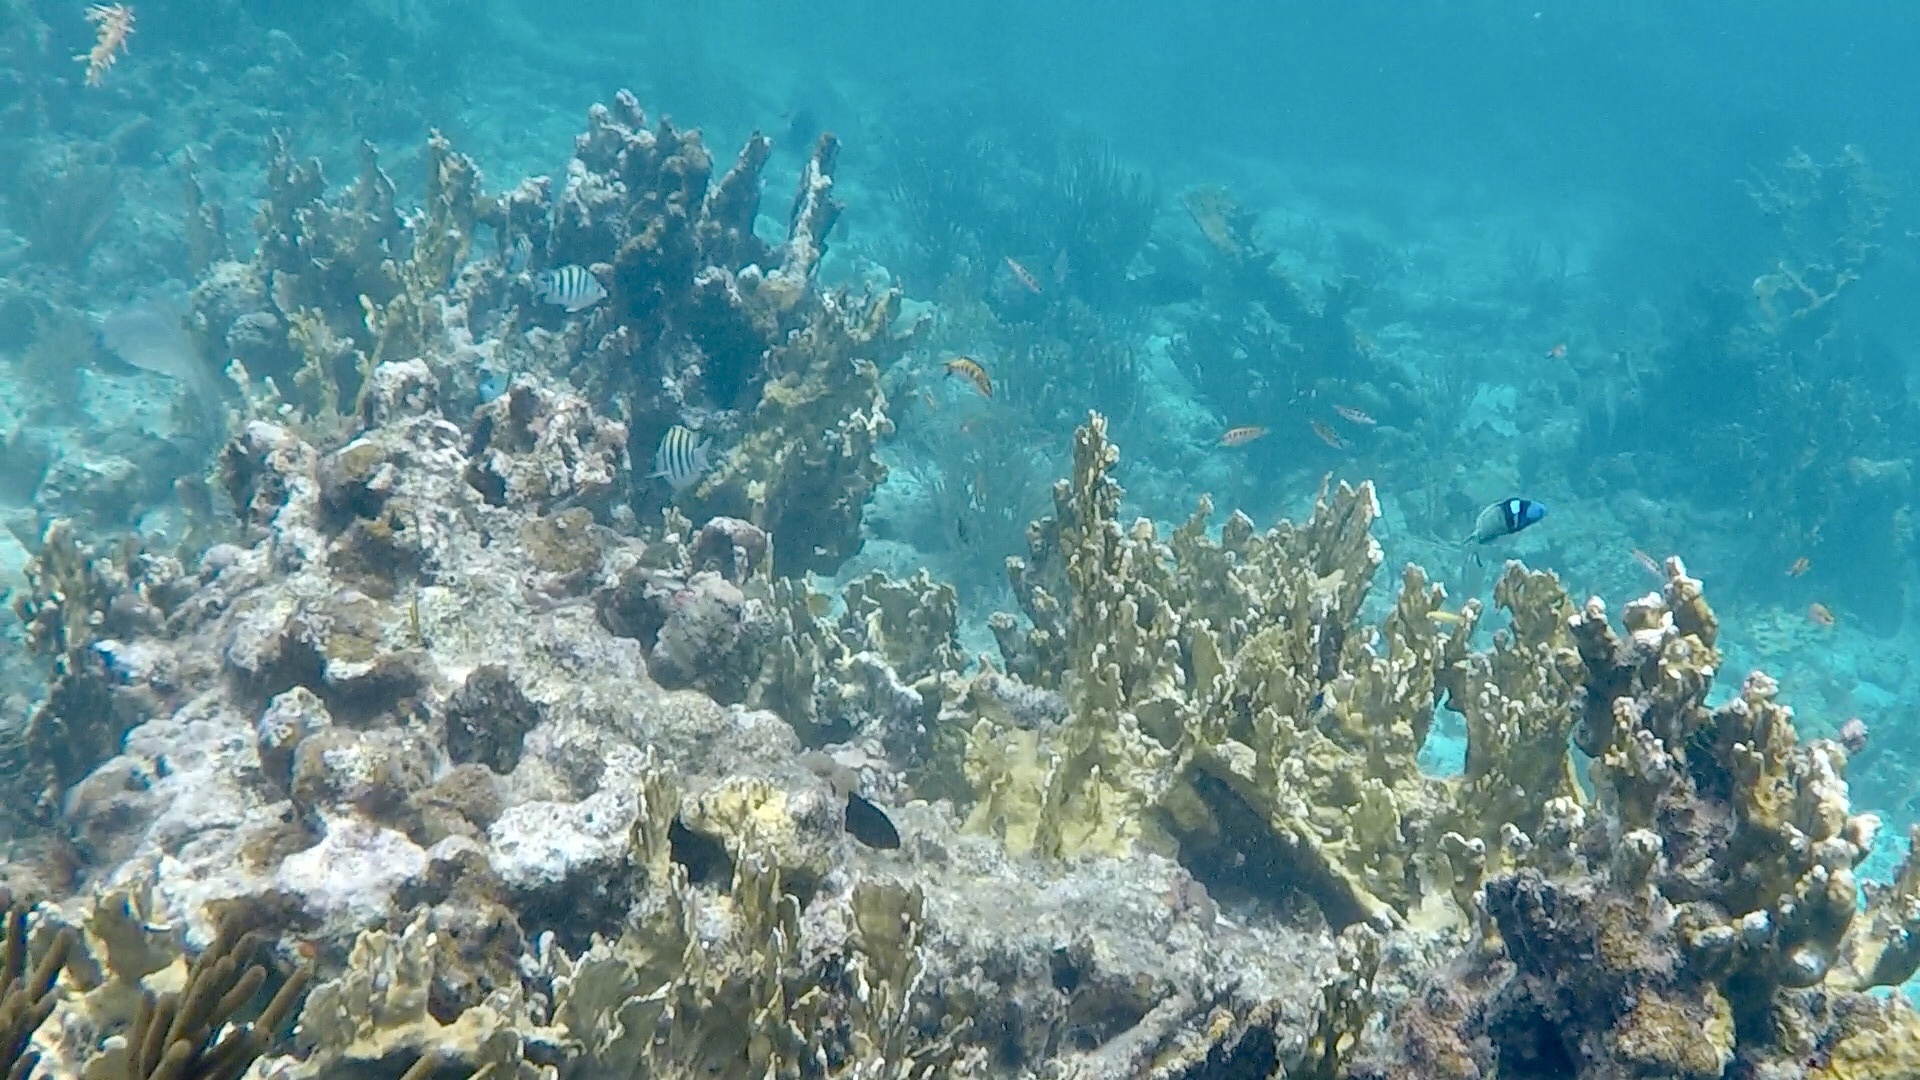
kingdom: Animalia
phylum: Chordata
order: Perciformes
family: Labridae
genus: Thalassoma
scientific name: Thalassoma bifasciatum
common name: Bluehead wrasse
